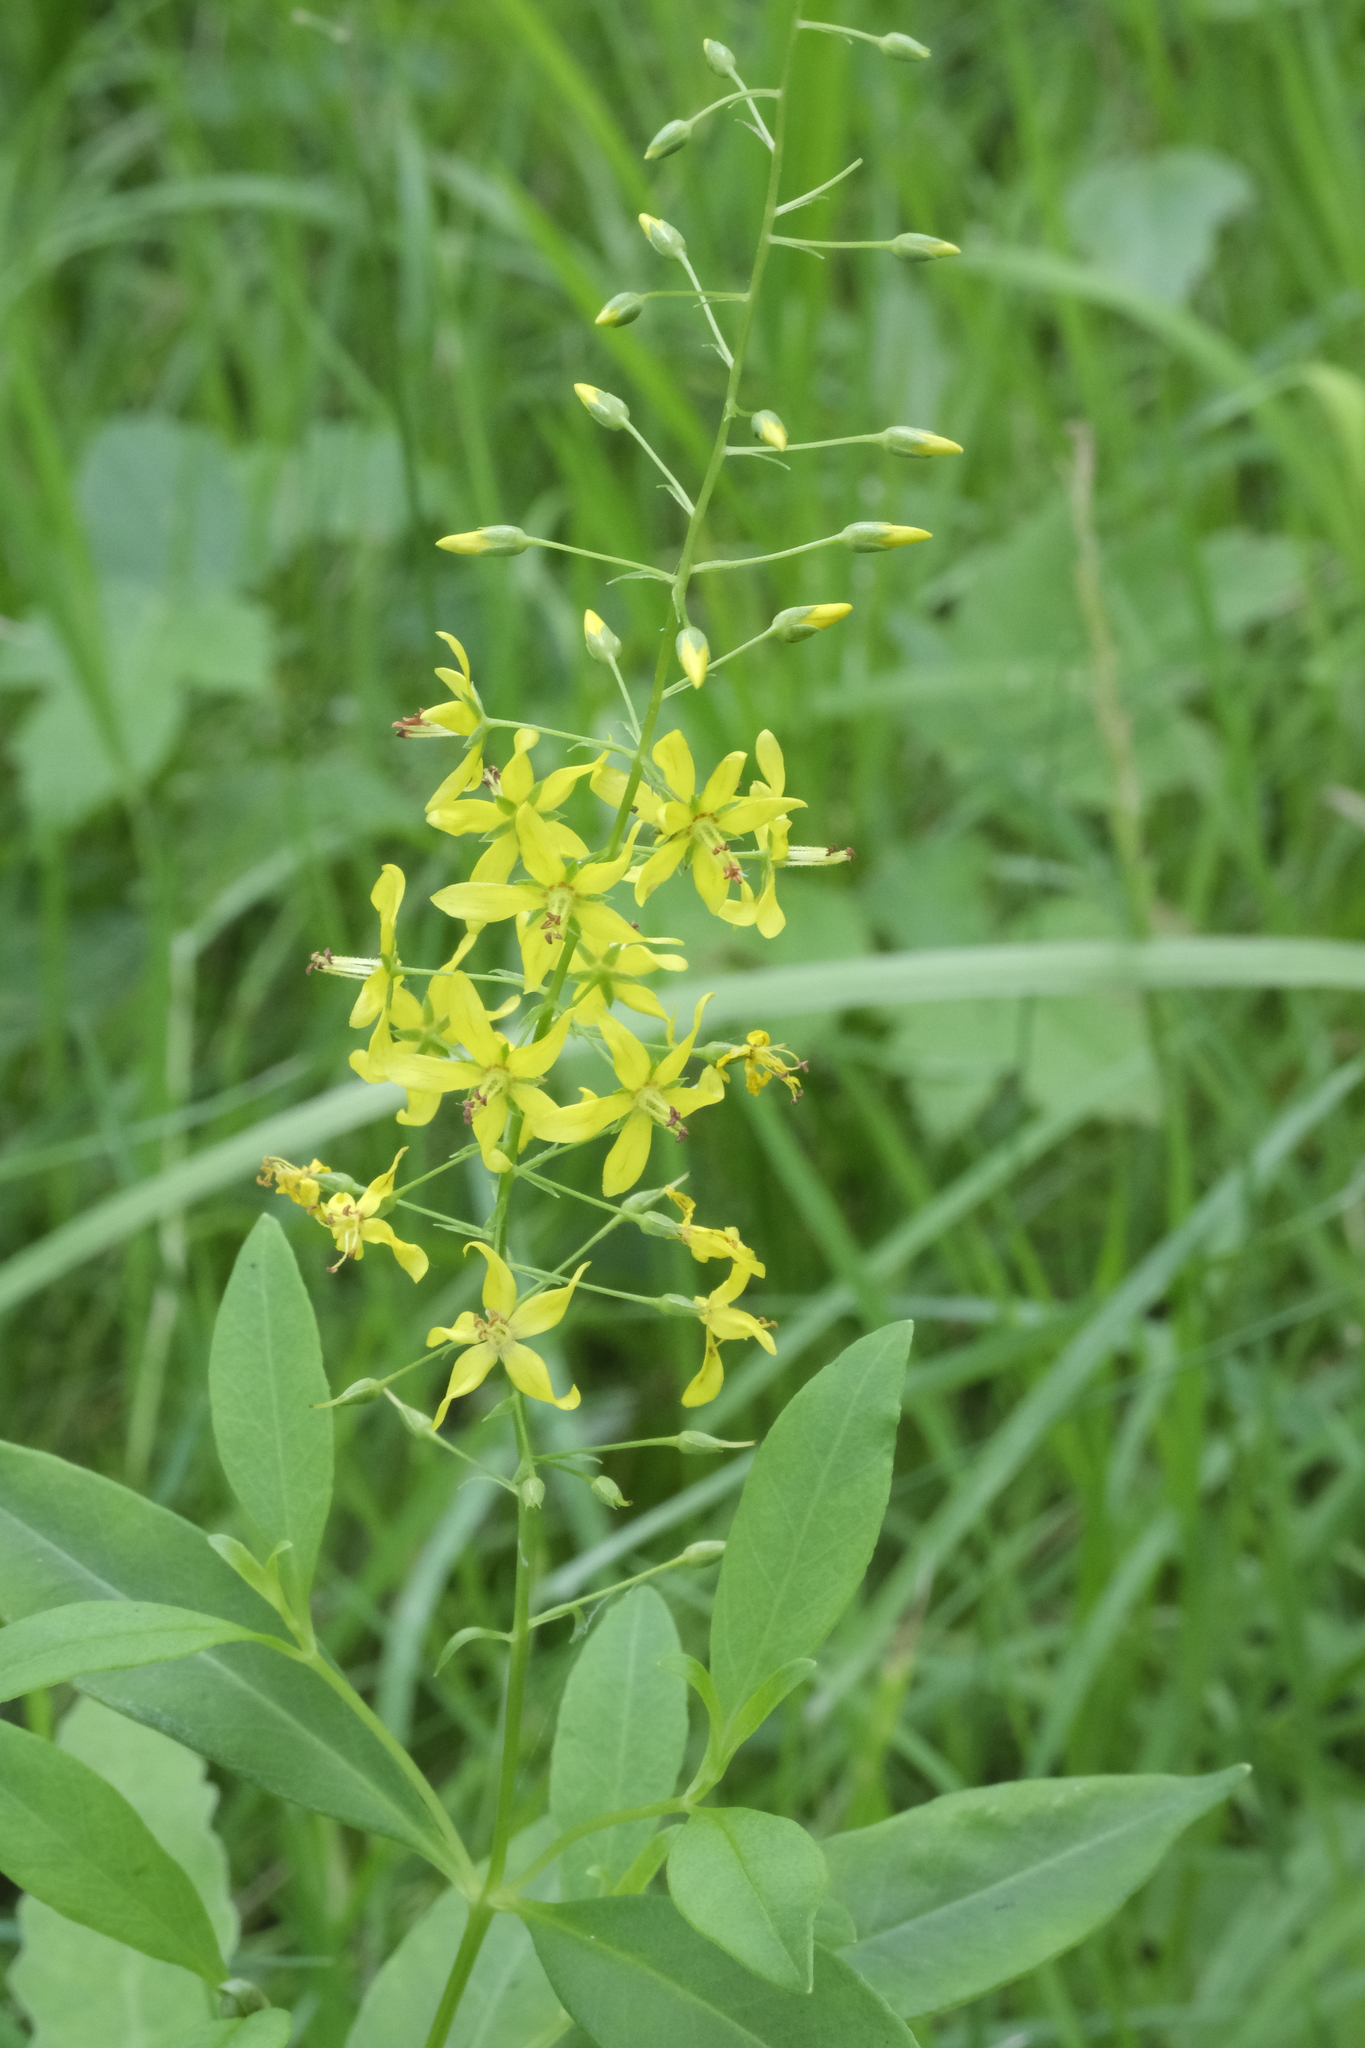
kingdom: Plantae
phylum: Tracheophyta
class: Magnoliopsida
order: Ericales
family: Primulaceae
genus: Lysimachia
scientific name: Lysimachia terrestris
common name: Lake loosestrife
